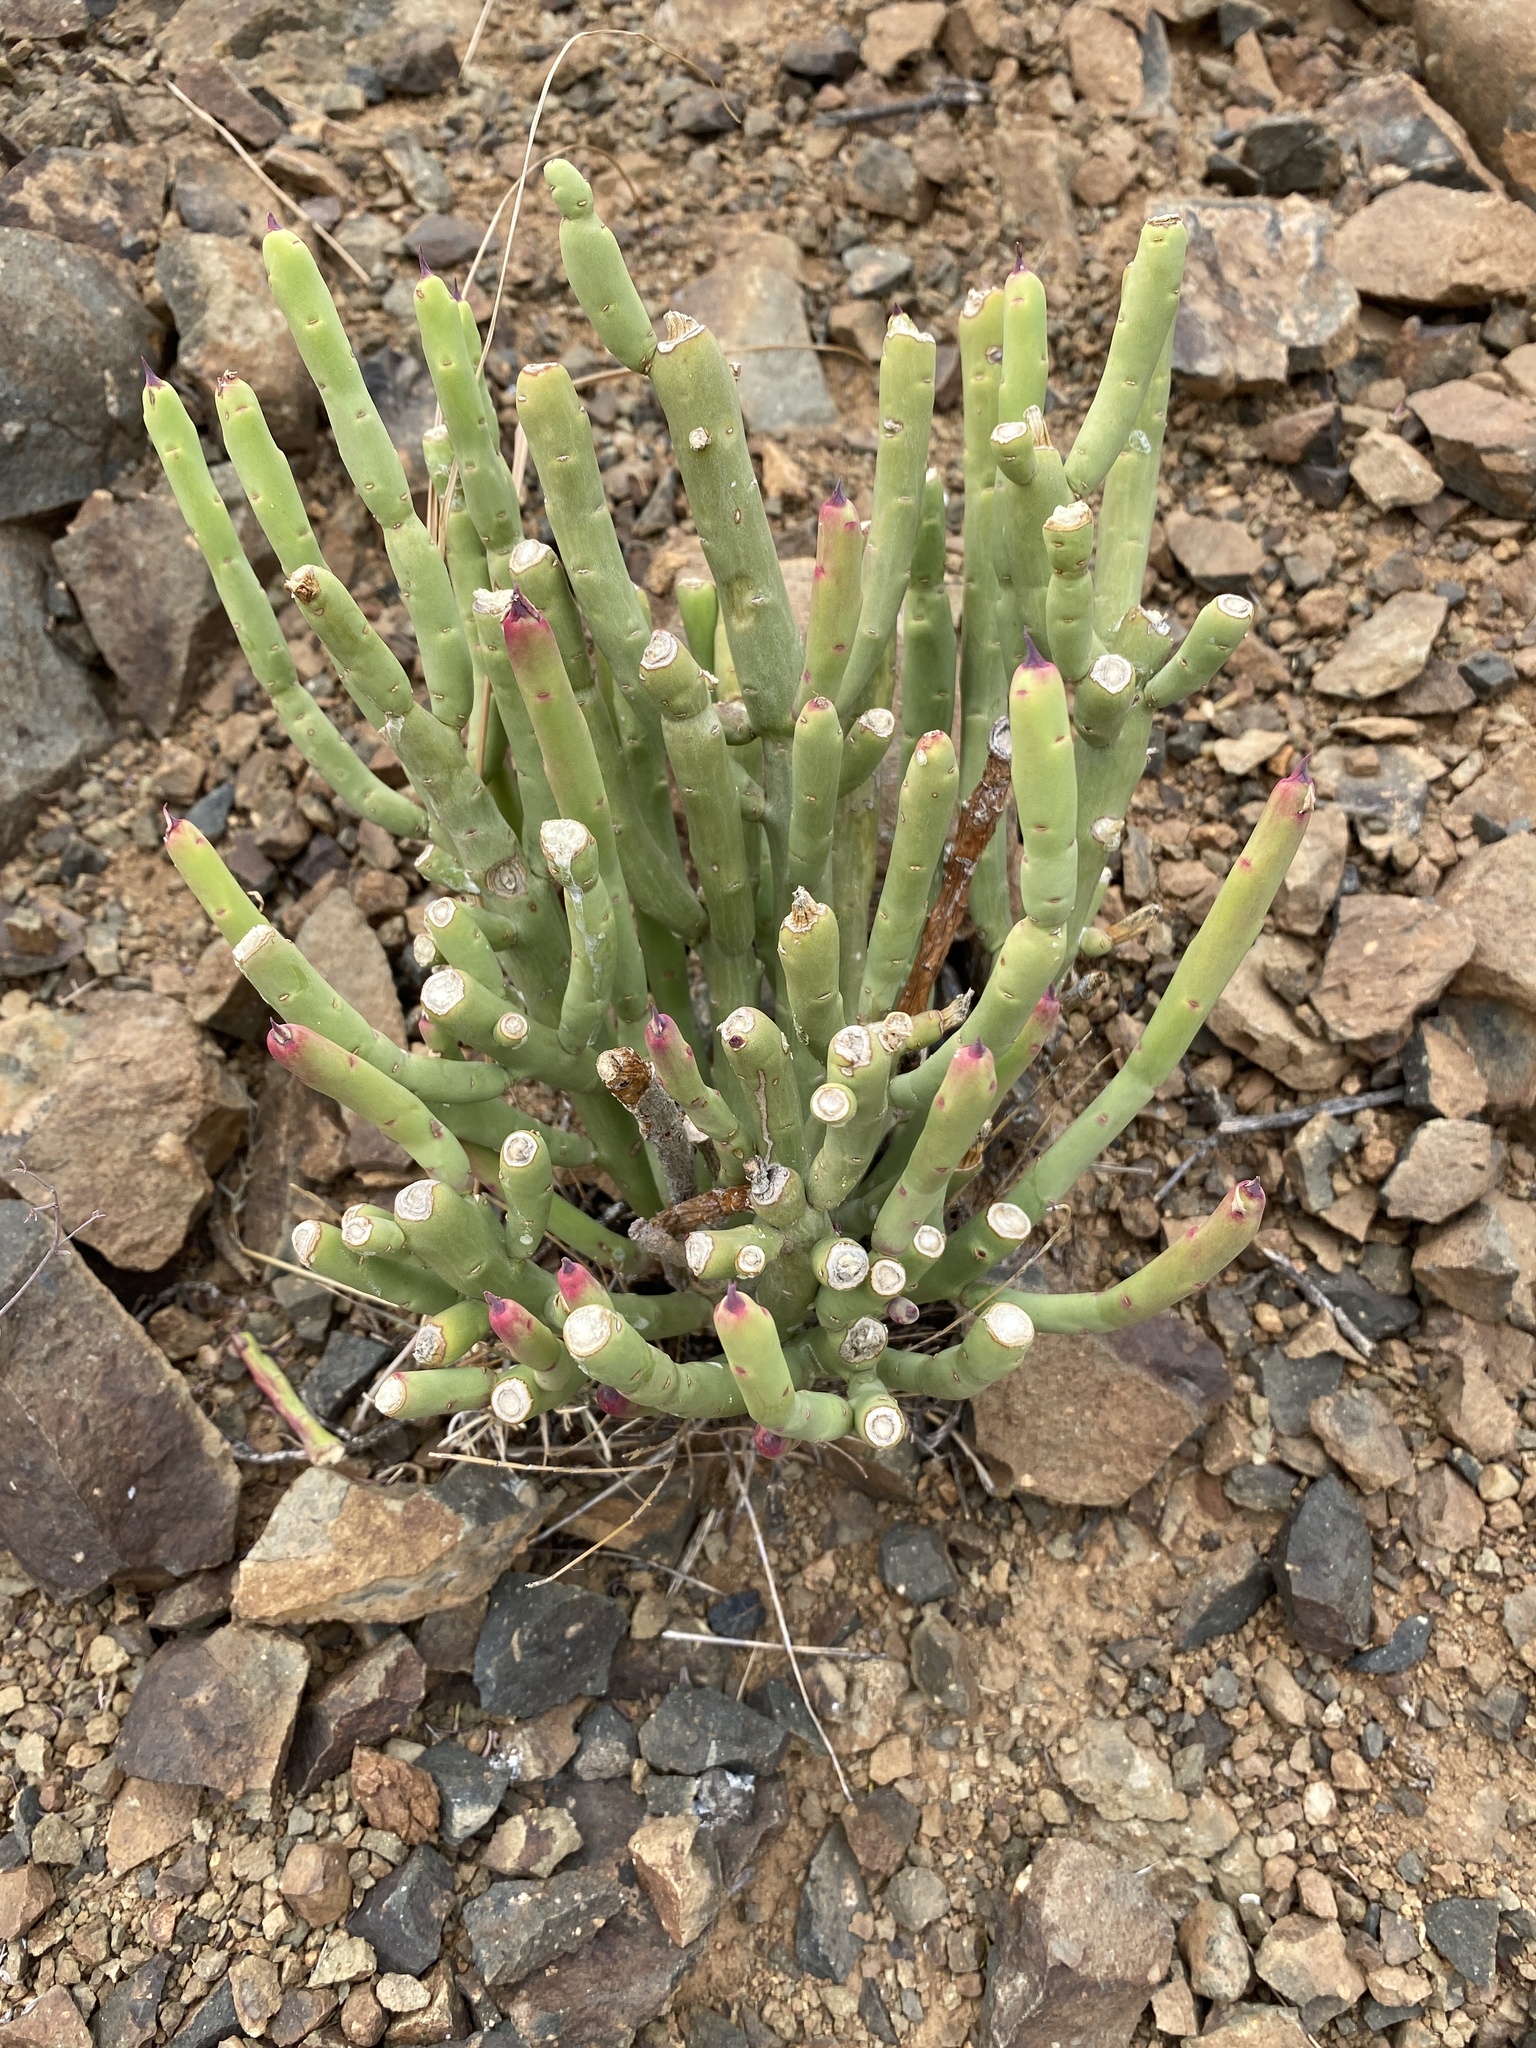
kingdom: Plantae
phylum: Tracheophyta
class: Magnoliopsida
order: Malpighiales
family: Euphorbiaceae
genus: Euphorbia
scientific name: Euphorbia mauritanica
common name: Jackal's-food
